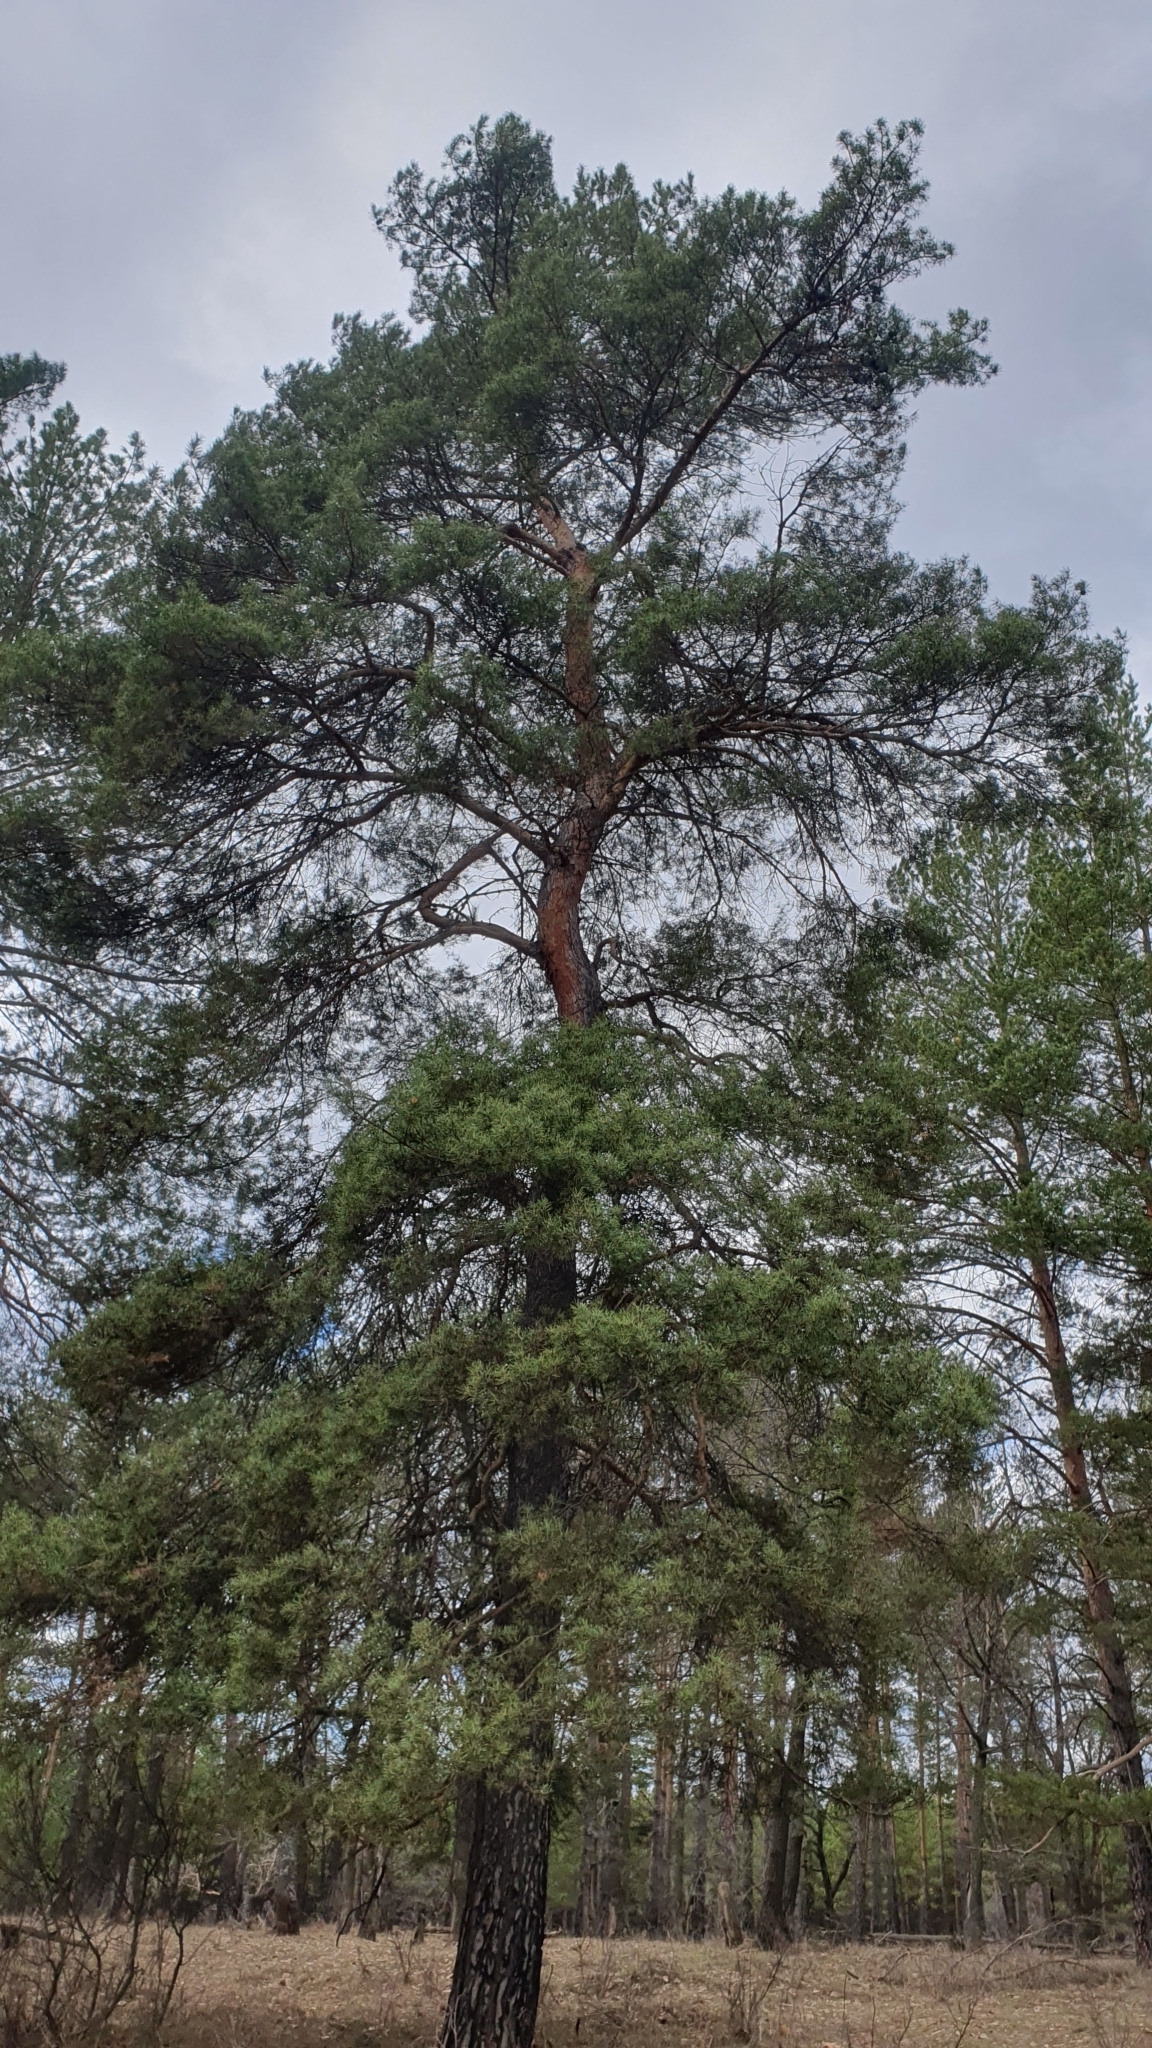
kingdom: Plantae
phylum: Tracheophyta
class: Pinopsida
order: Pinales
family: Pinaceae
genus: Pinus
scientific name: Pinus sylvestris
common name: Scots pine
